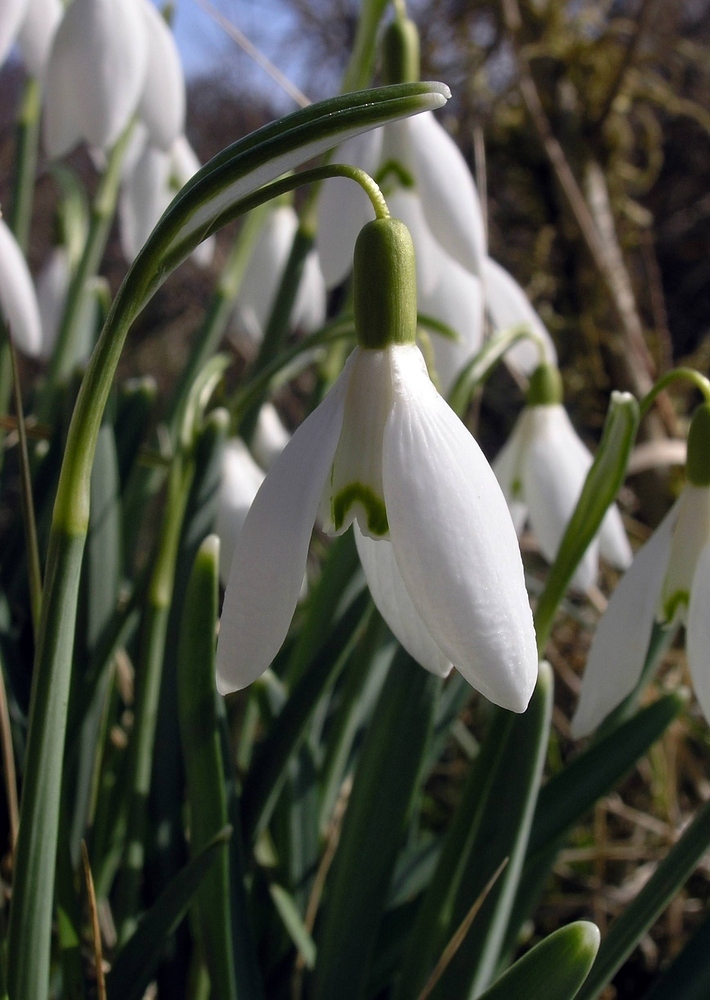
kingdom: Plantae
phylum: Tracheophyta
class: Liliopsida
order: Asparagales
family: Amaryllidaceae
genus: Galanthus
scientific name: Galanthus nivalis
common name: Snowdrop
